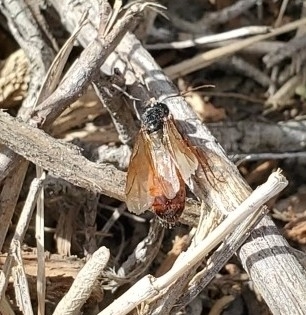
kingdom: Animalia
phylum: Arthropoda
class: Insecta
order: Hymenoptera
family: Formicidae
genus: Camponotus
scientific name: Camponotus sansabeanus
